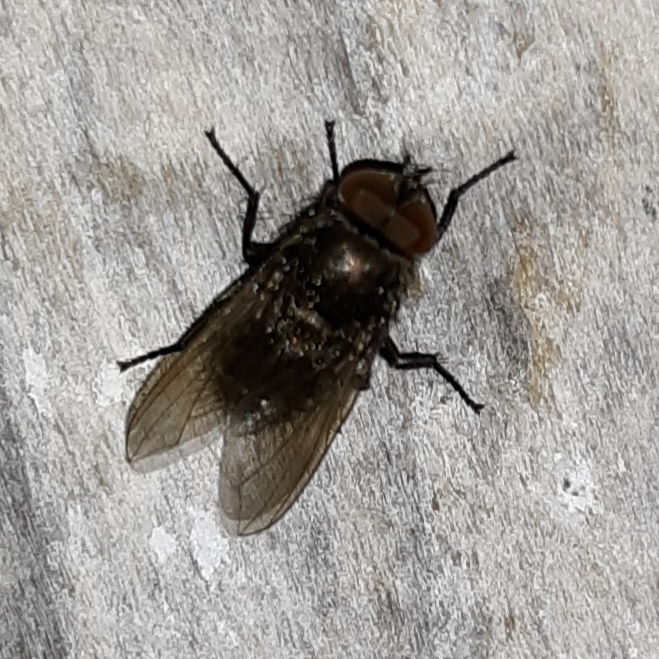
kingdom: Animalia
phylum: Arthropoda
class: Insecta
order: Diptera
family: Polleniidae
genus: Pollenia
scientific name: Pollenia
